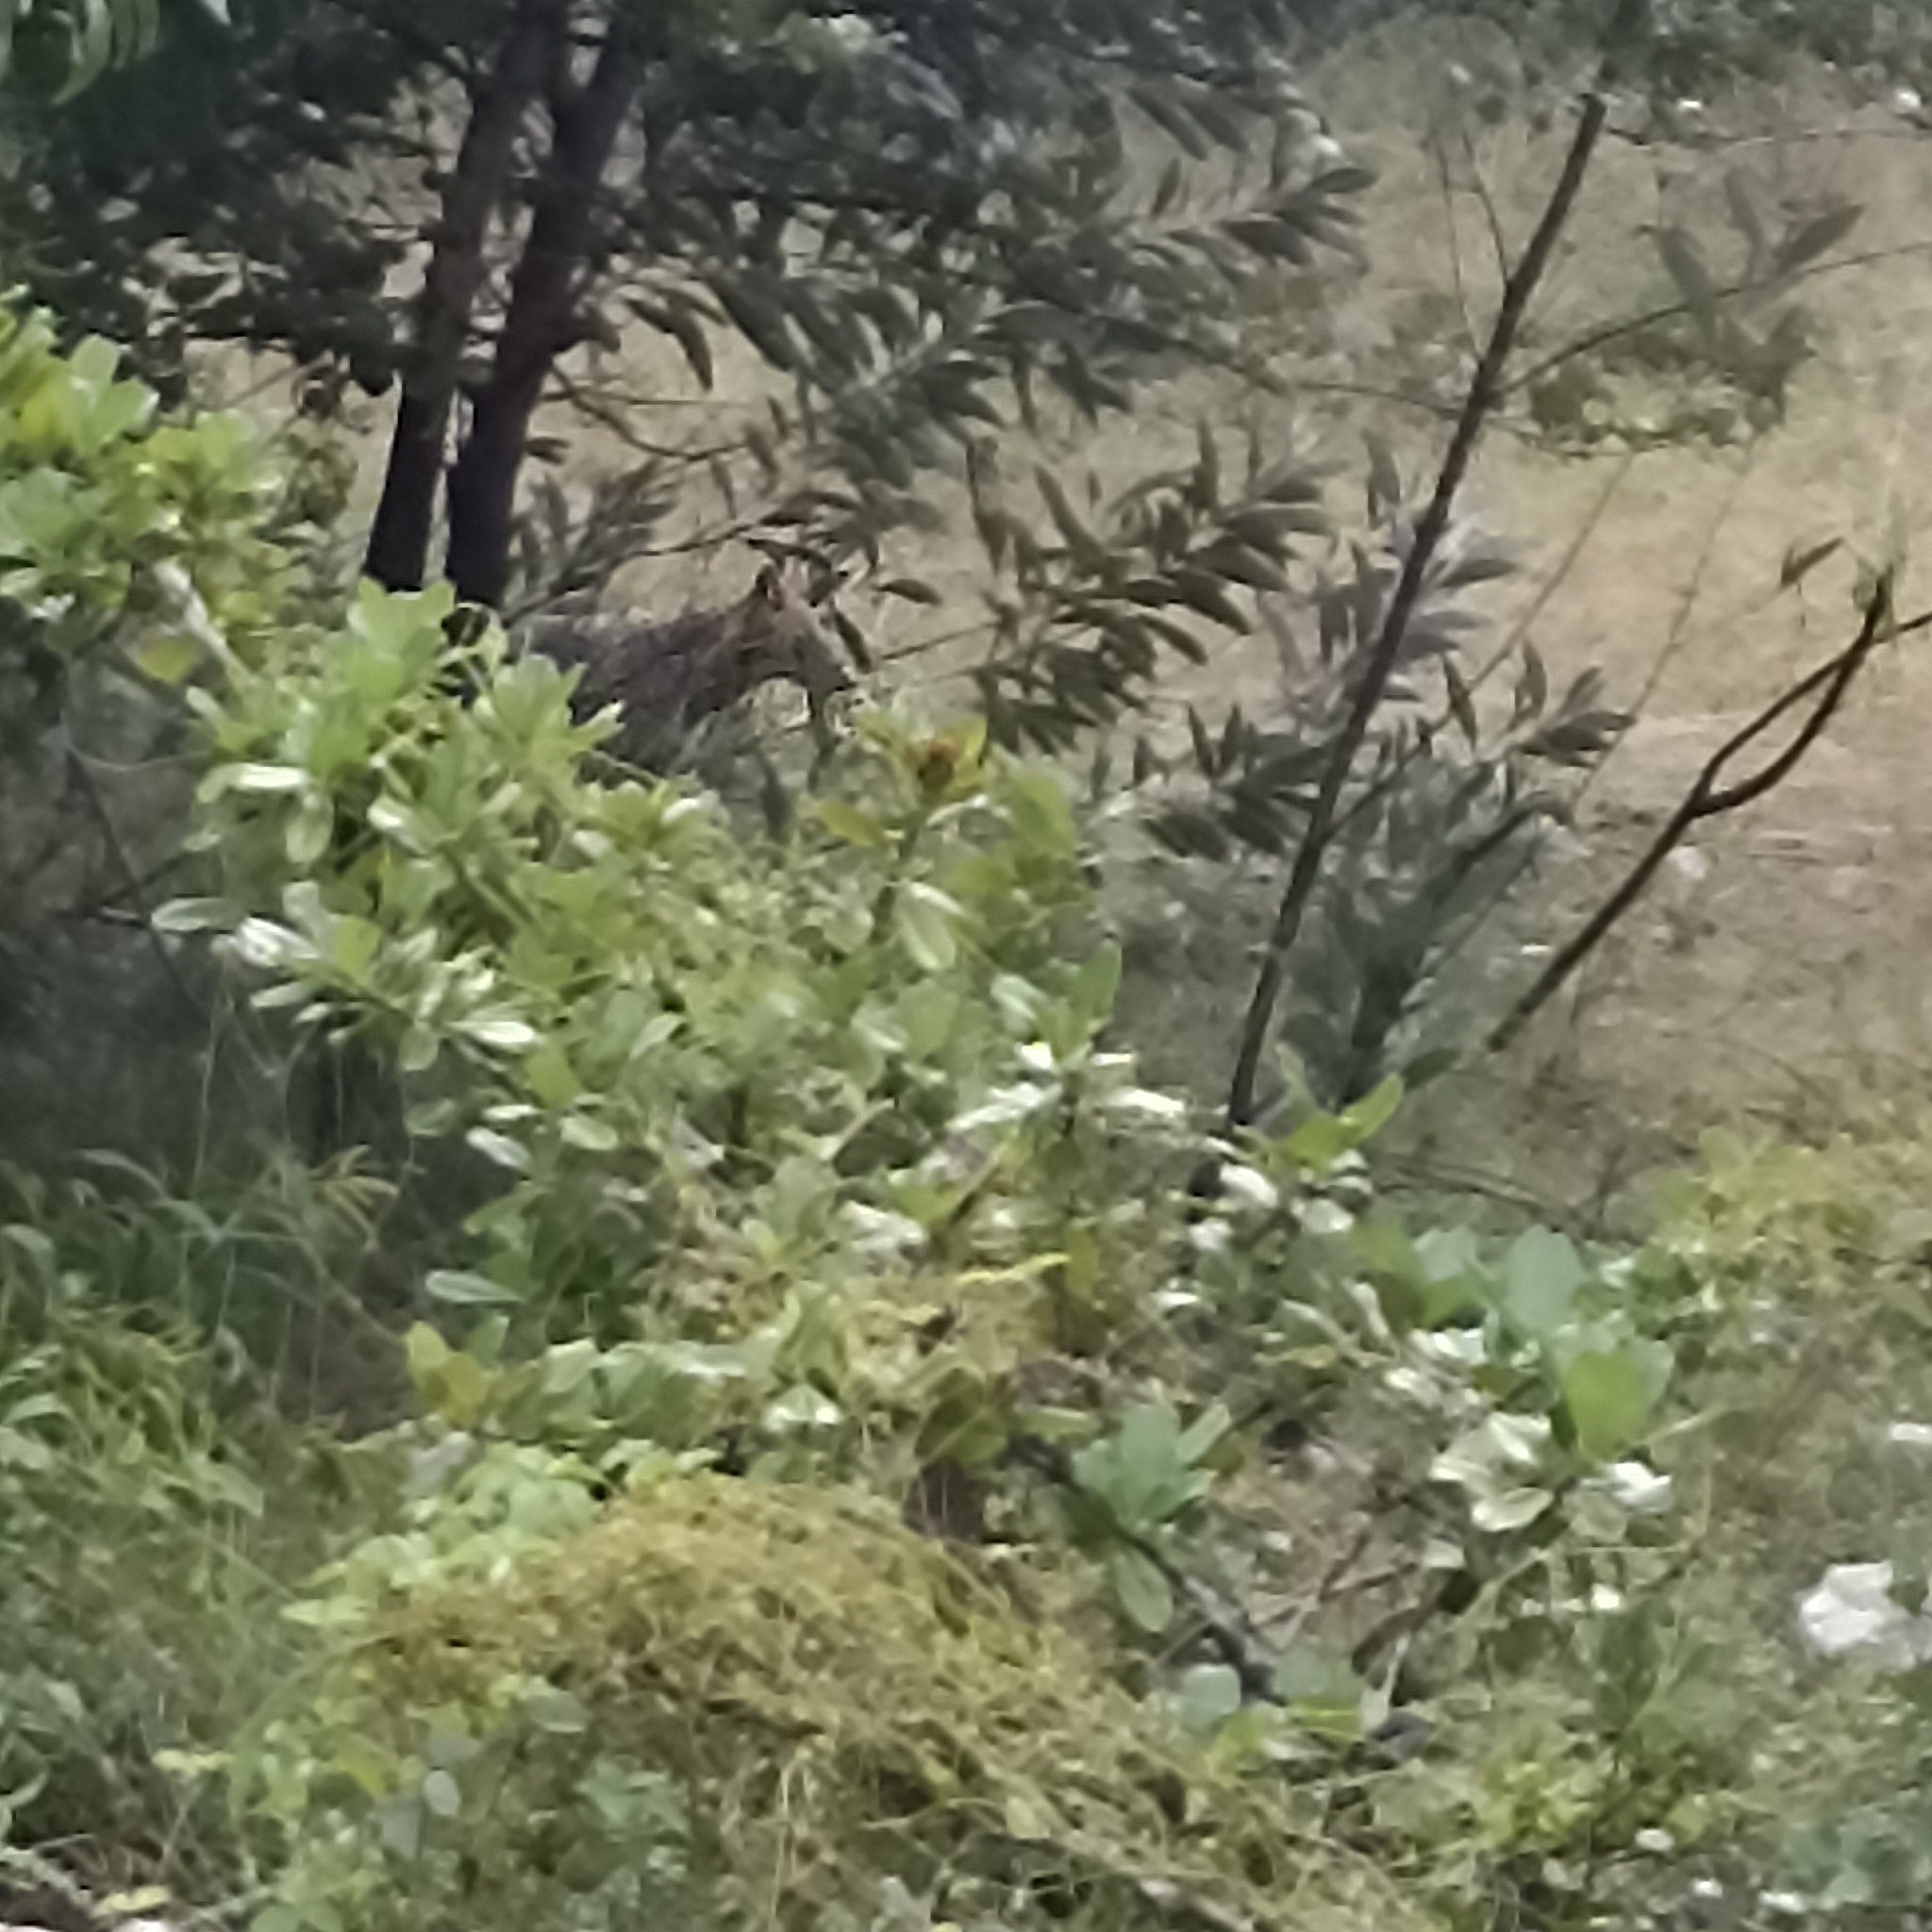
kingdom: Animalia
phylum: Chordata
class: Mammalia
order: Carnivora
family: Canidae
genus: Canis
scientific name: Canis aureus
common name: Golden jackal
